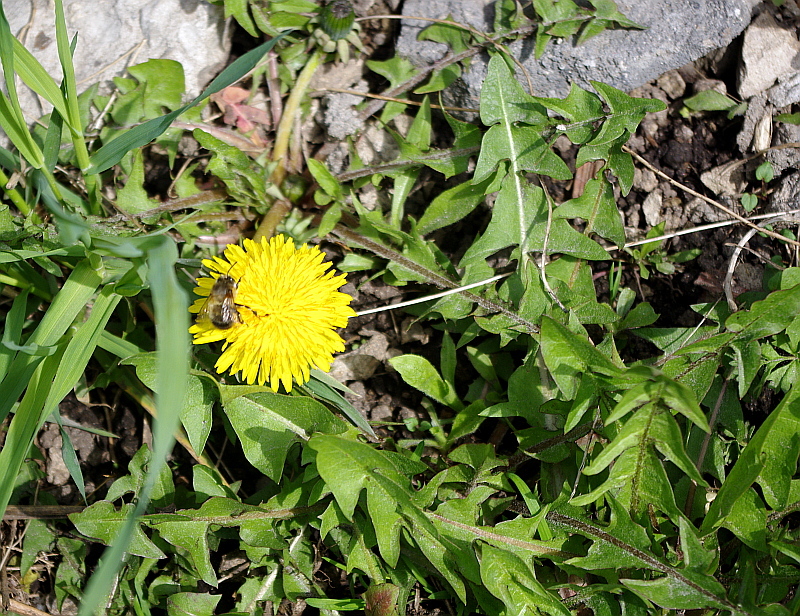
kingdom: Animalia
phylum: Arthropoda
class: Insecta
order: Hymenoptera
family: Apidae
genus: Anthophora
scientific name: Anthophora plumipes
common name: Hairy-footed flower bee
